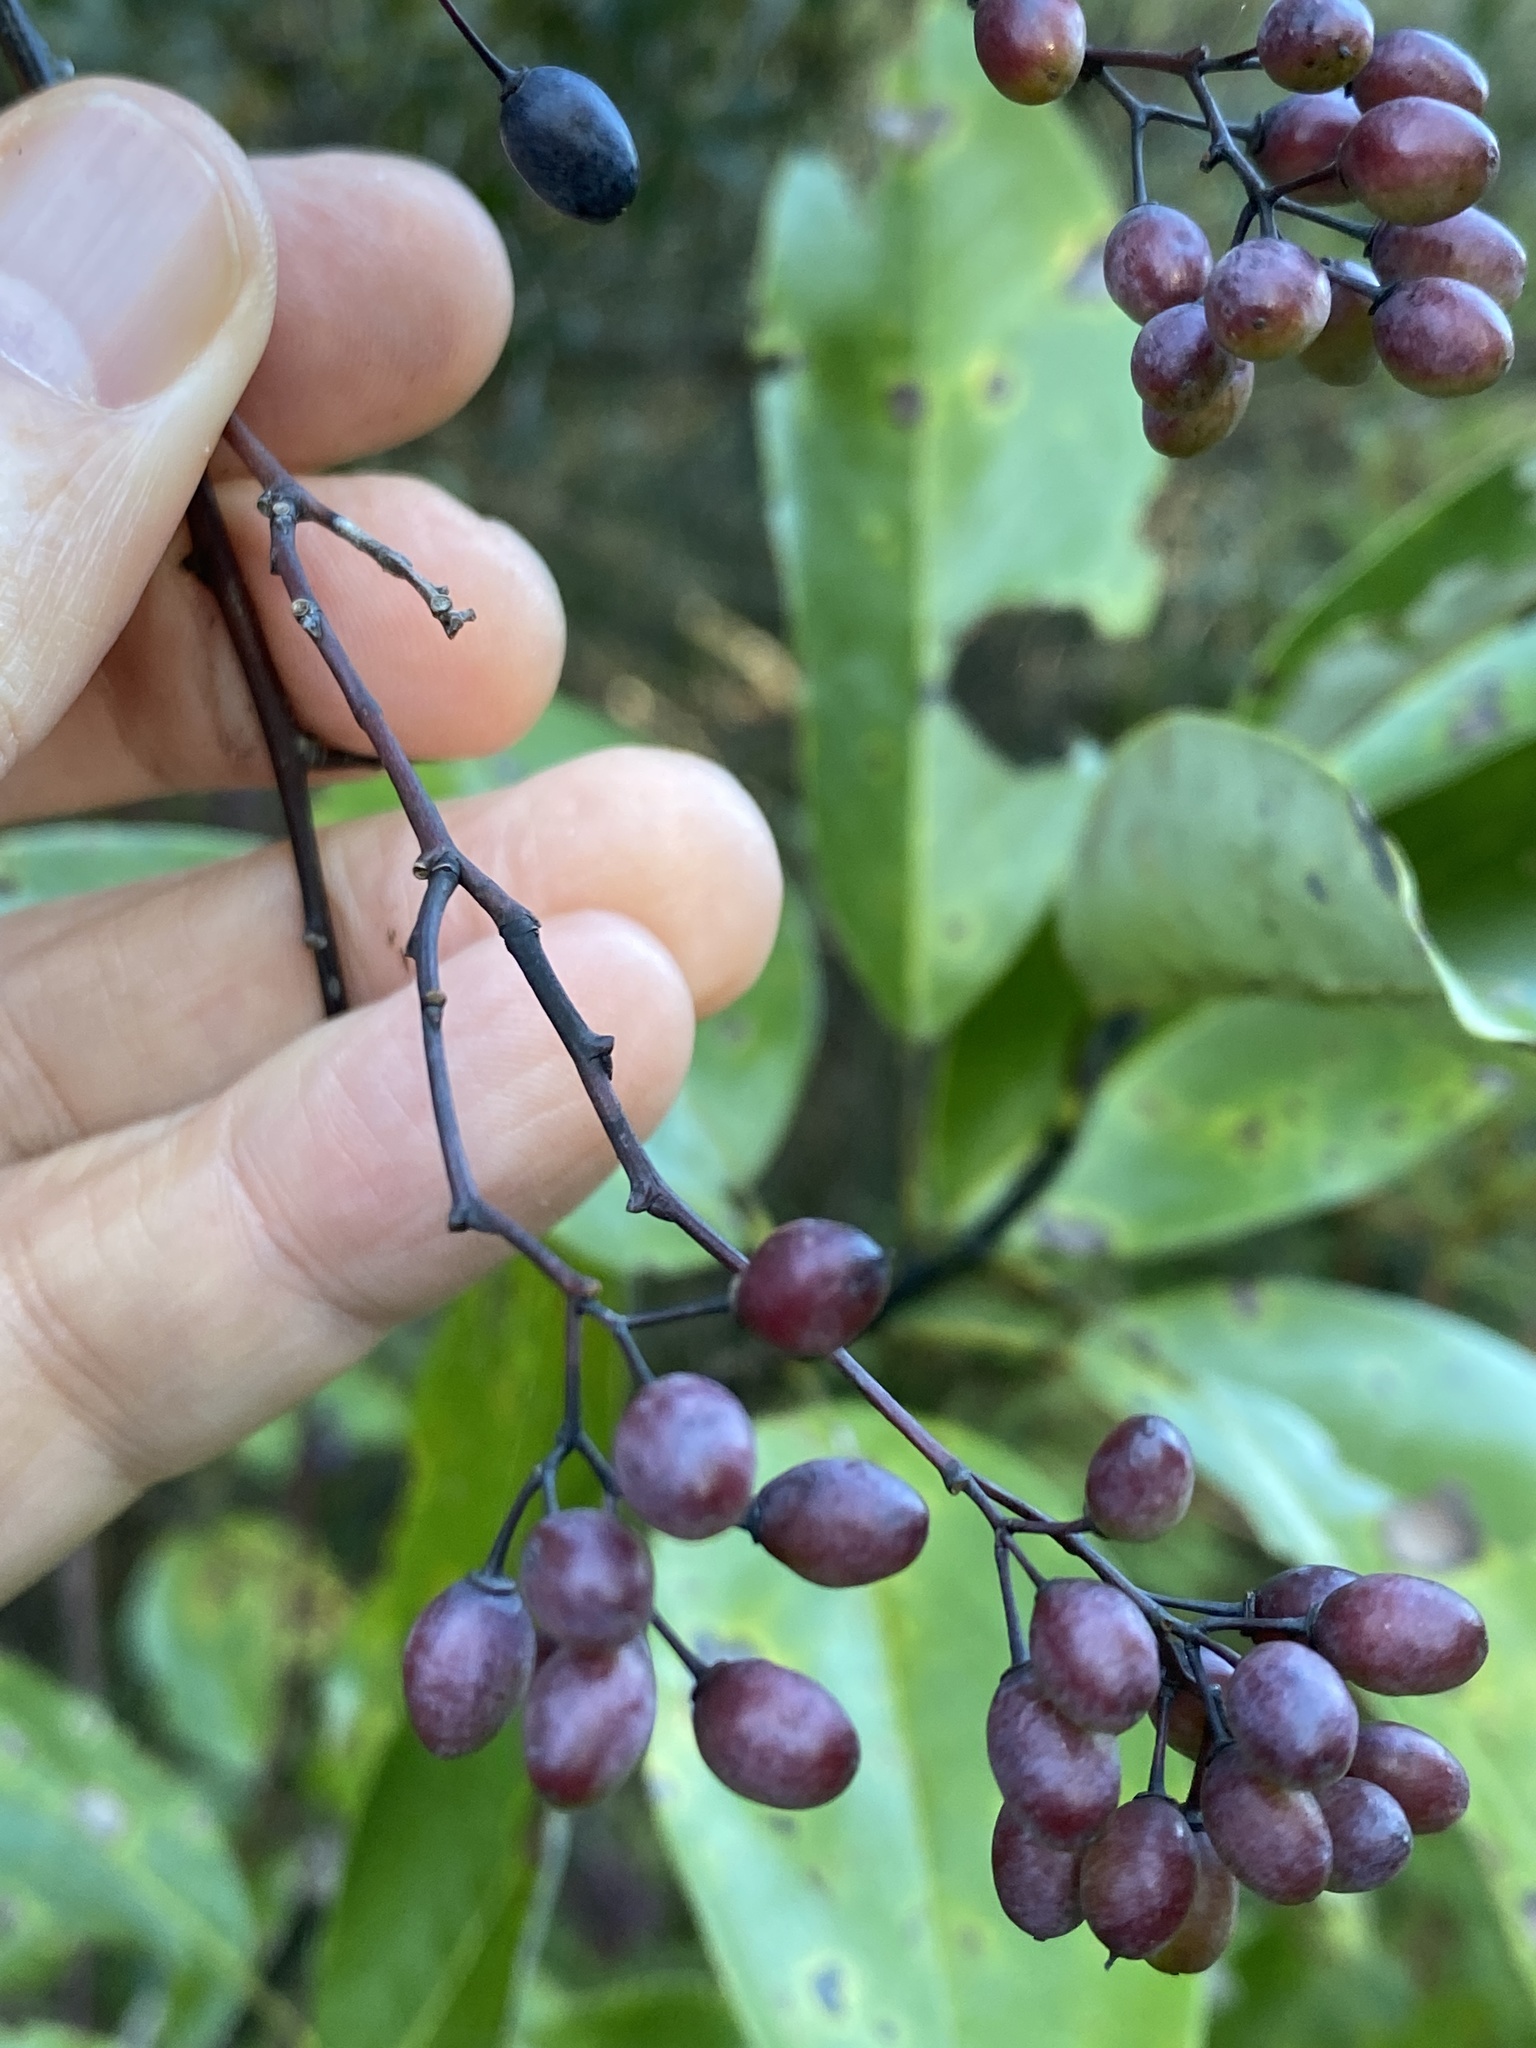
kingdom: Plantae
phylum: Tracheophyta
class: Magnoliopsida
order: Rosales
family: Rhamnaceae
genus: Berchemia
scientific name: Berchemia scandens
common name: Supplejack
